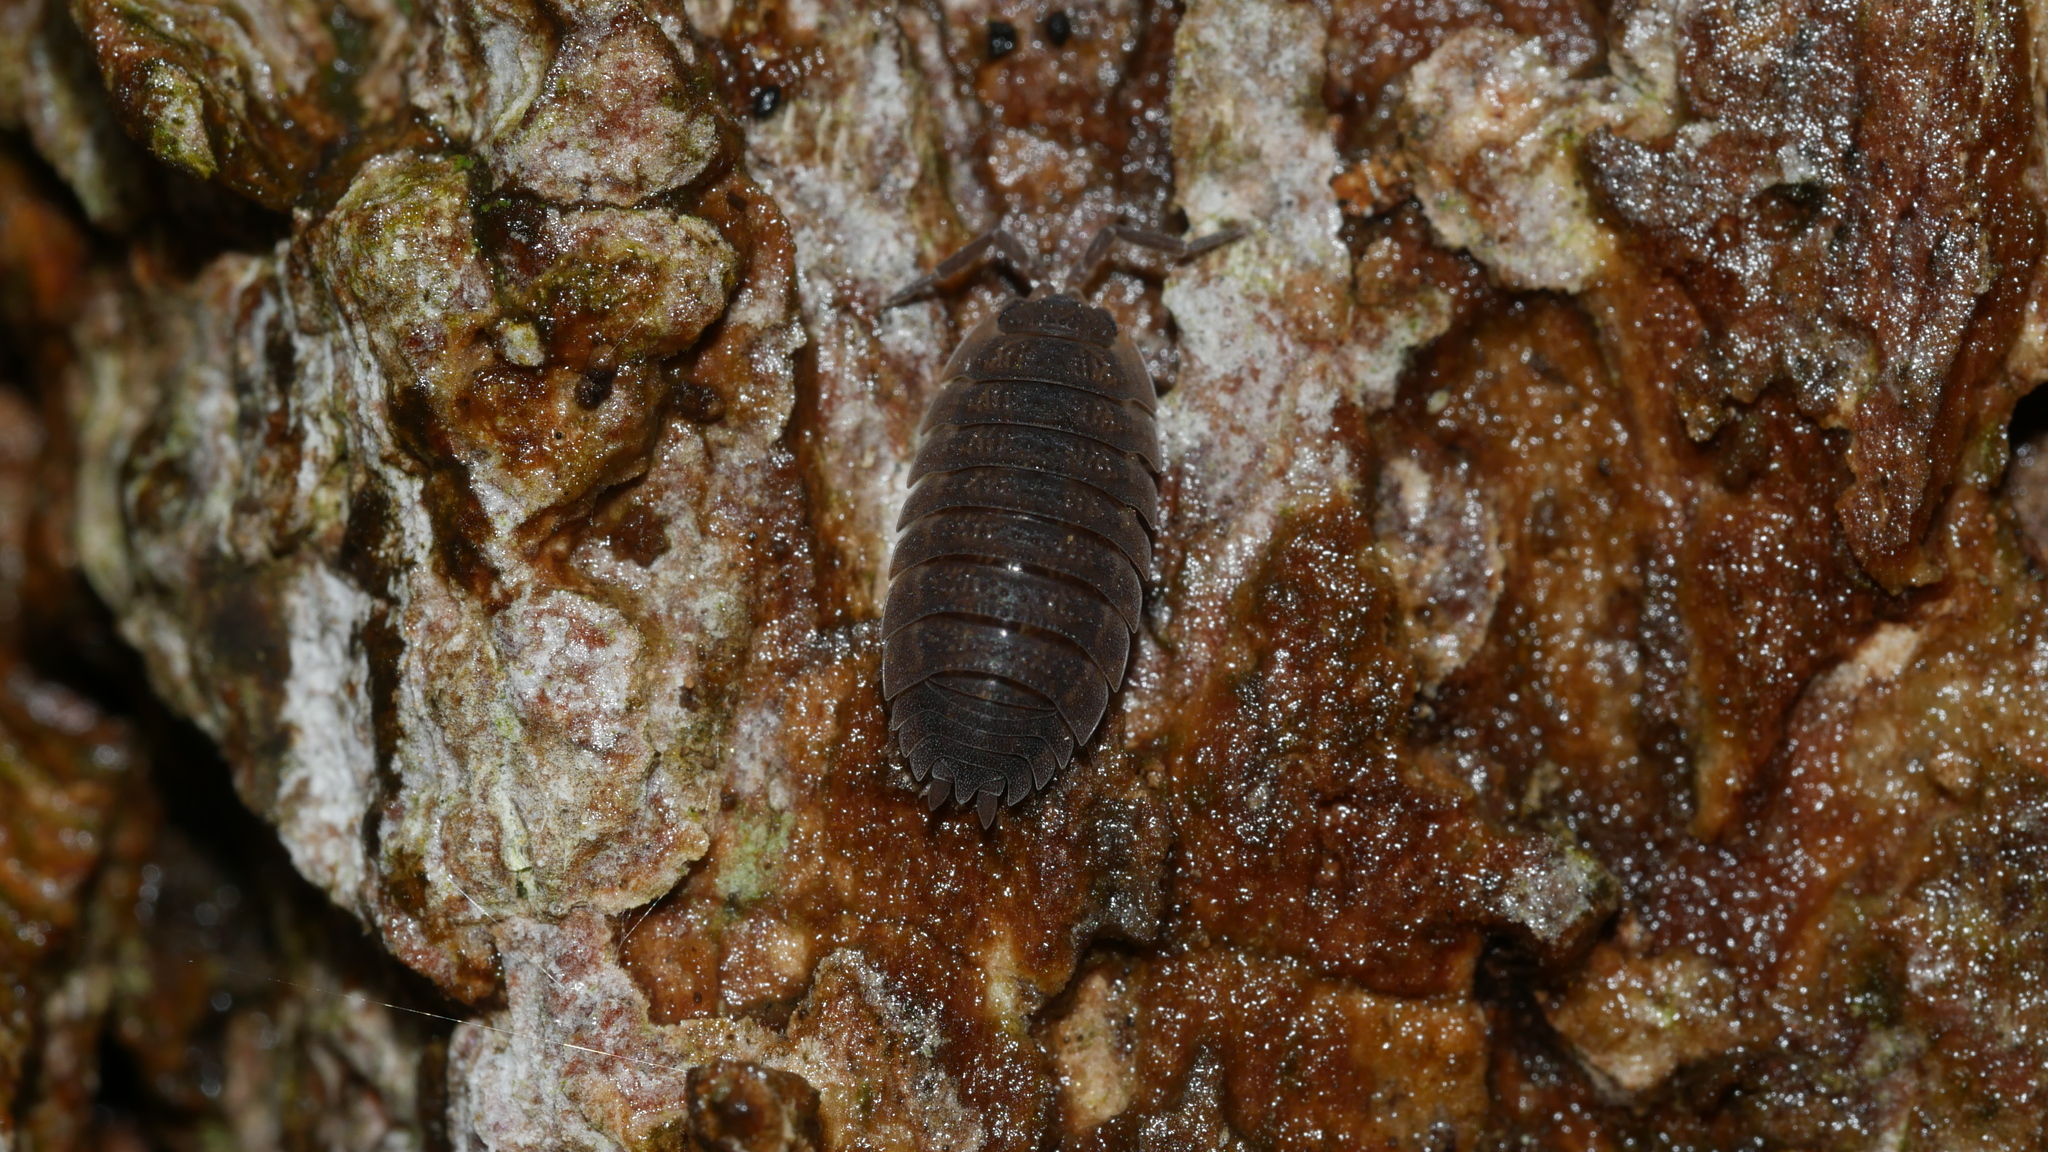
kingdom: Animalia
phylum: Arthropoda
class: Malacostraca
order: Isopoda
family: Porcellionidae
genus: Porcellio
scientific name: Porcellio scaber
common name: Common rough woodlouse
